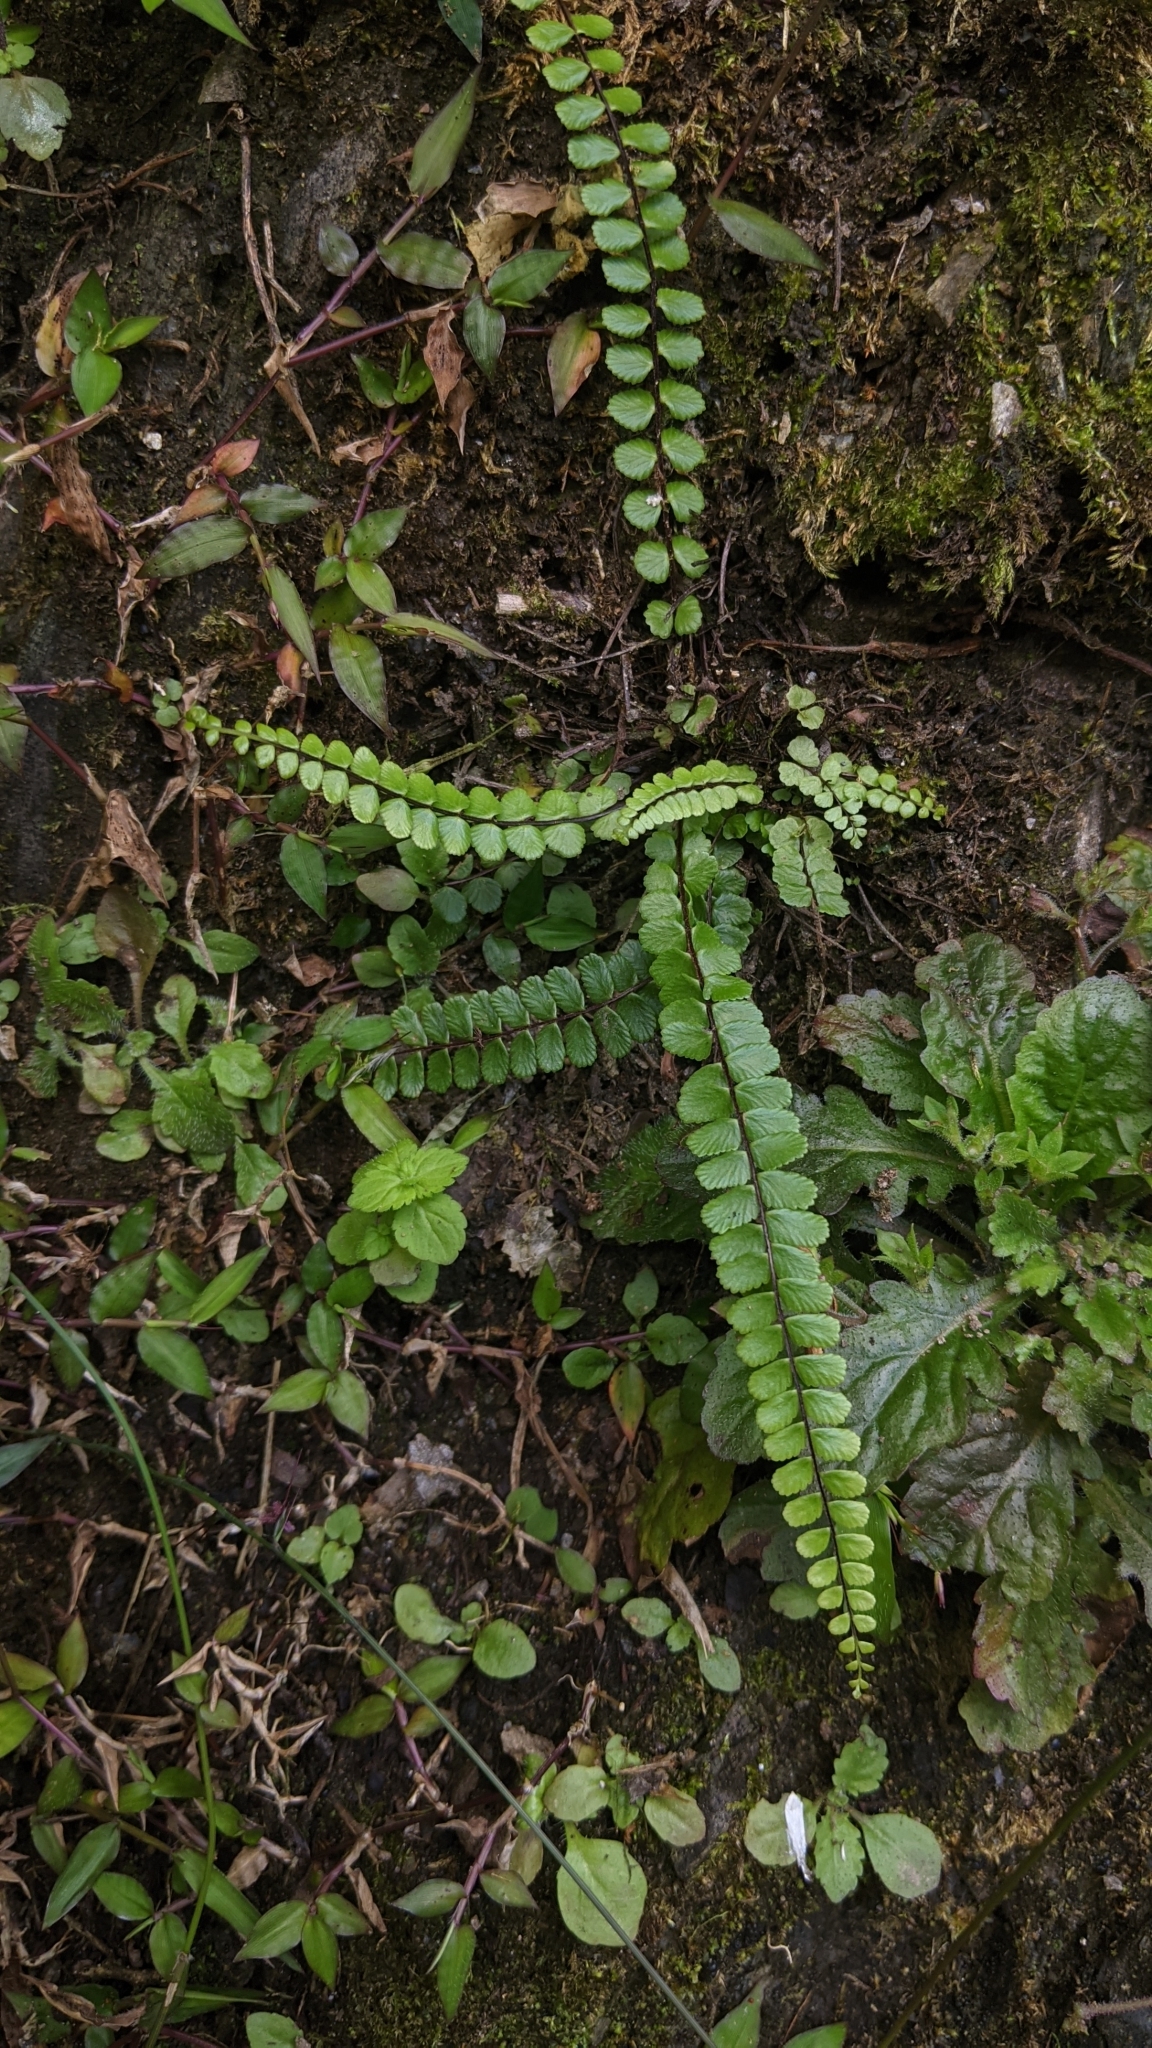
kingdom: Plantae
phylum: Tracheophyta
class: Polypodiopsida
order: Polypodiales
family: Aspleniaceae
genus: Asplenium
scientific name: Asplenium tripteropus
